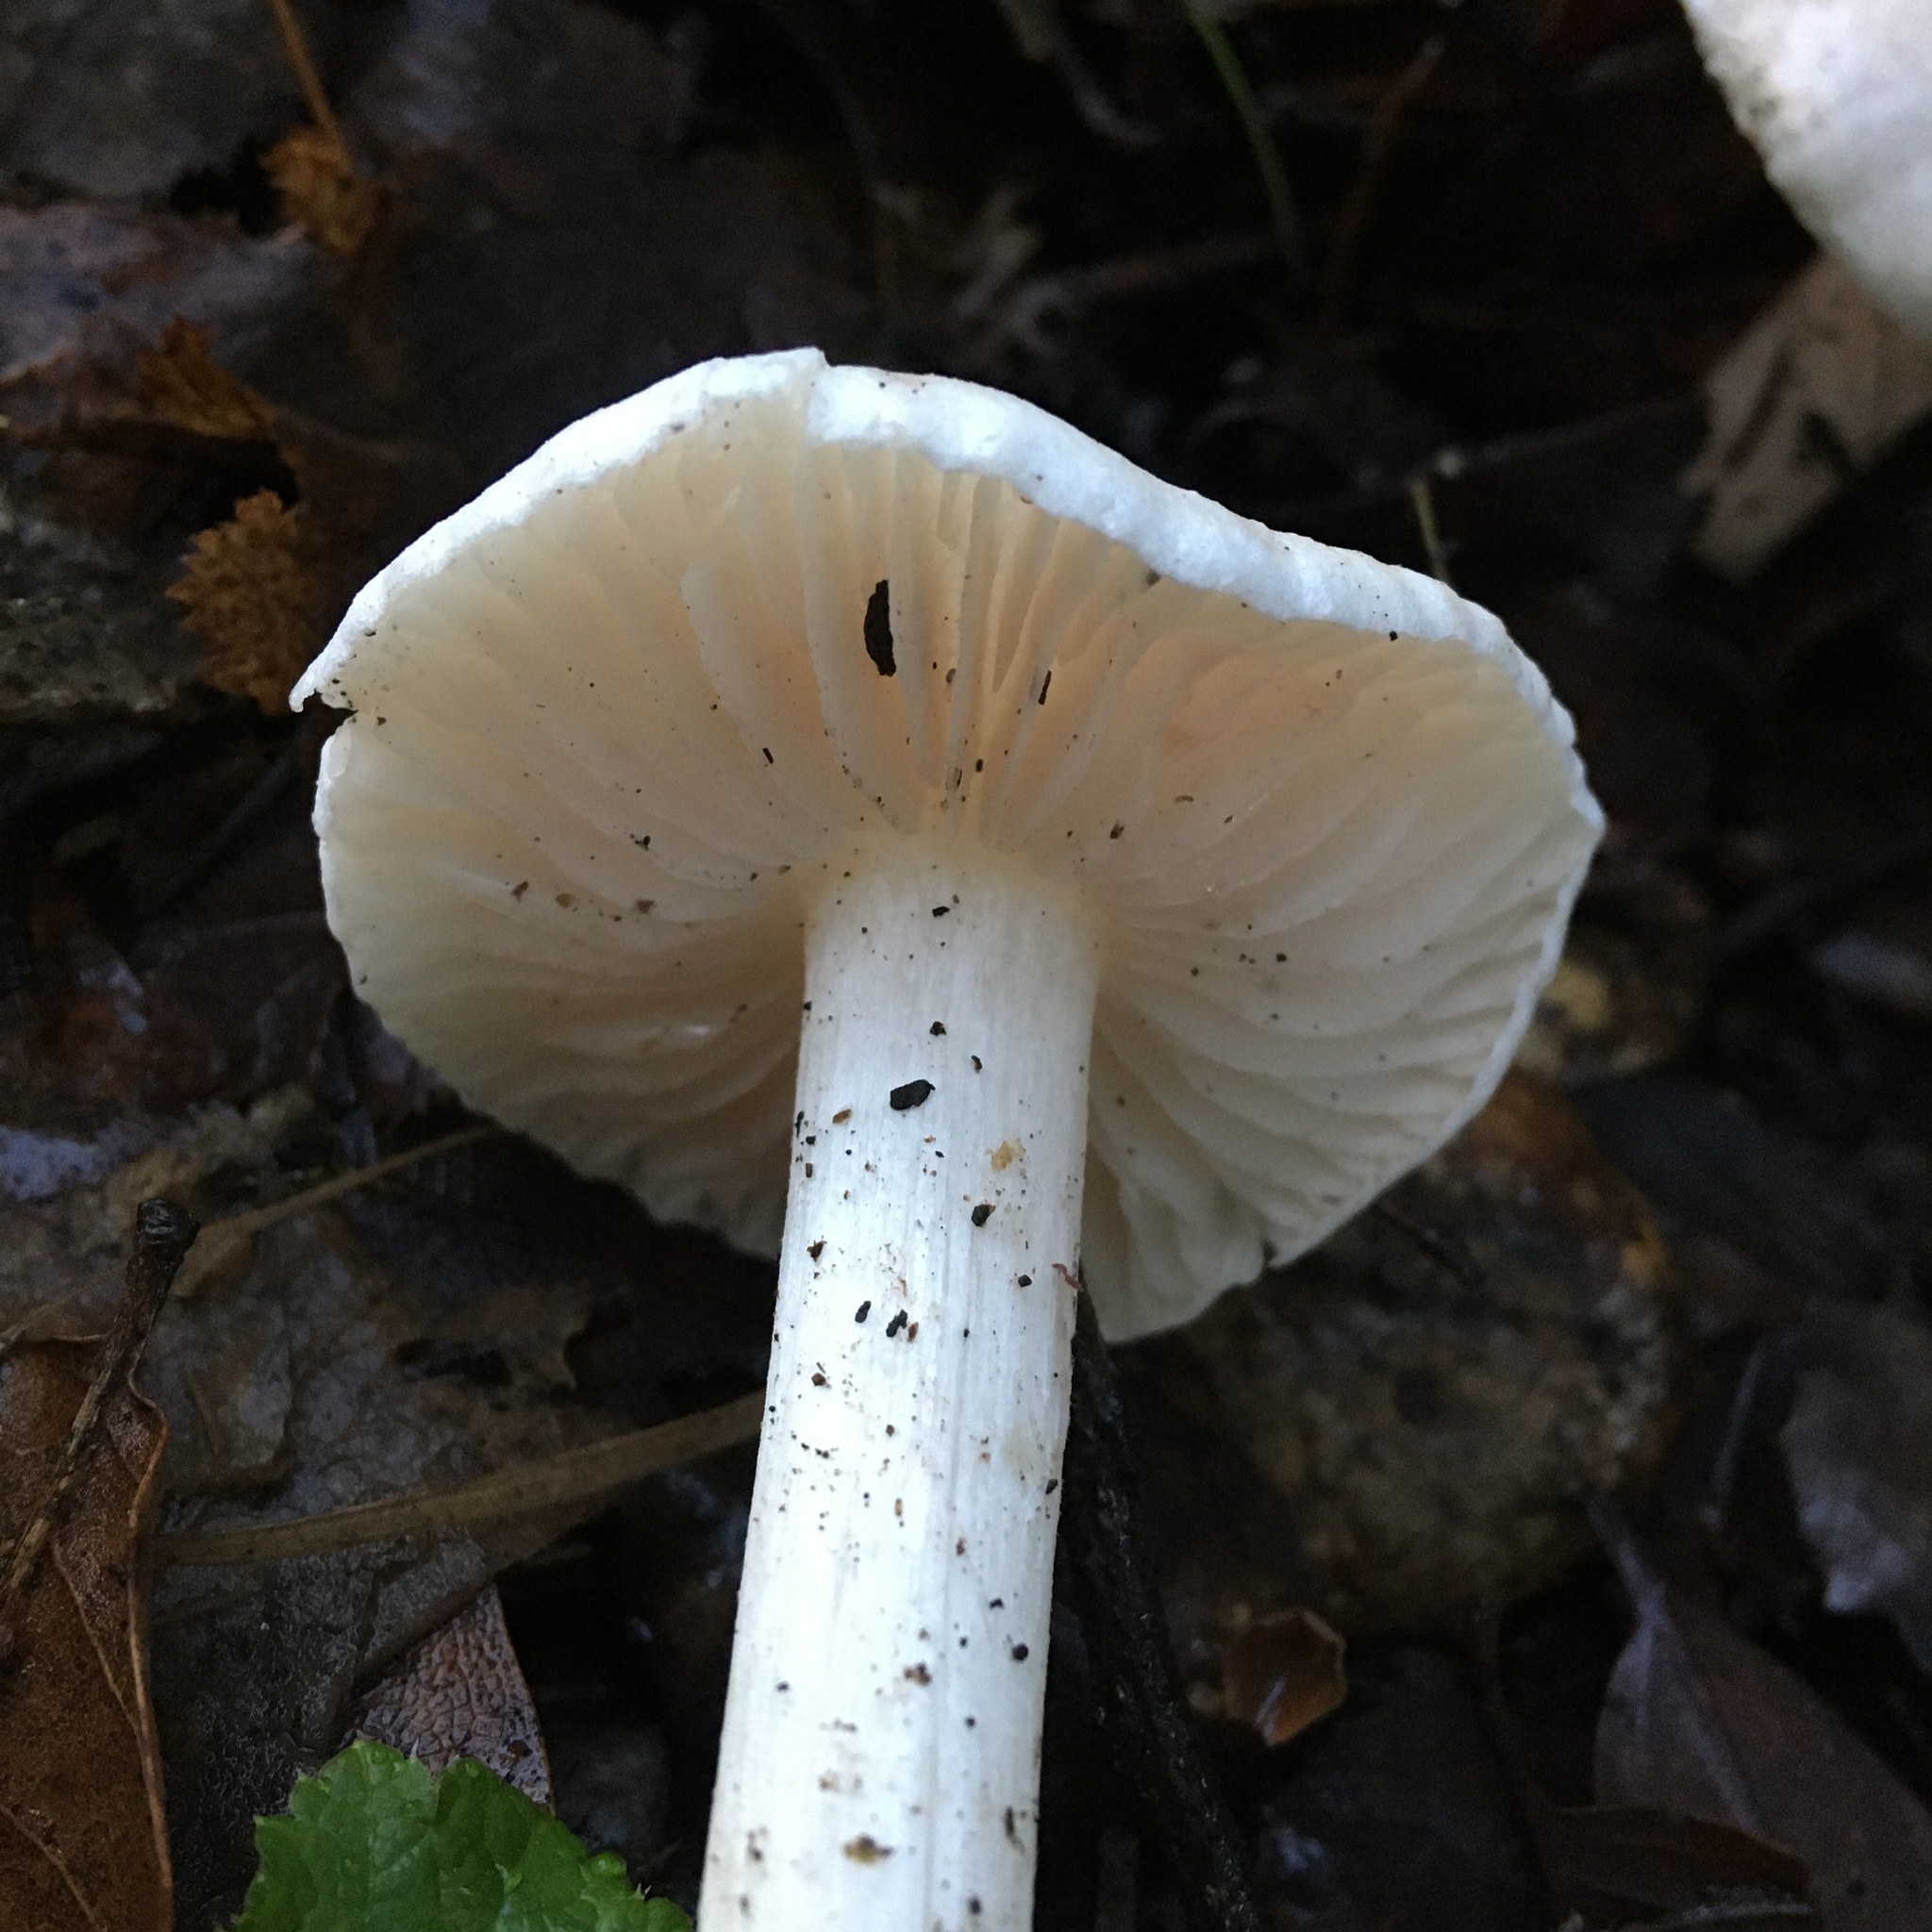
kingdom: Fungi
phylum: Basidiomycota
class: Agaricomycetes
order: Agaricales
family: Hygrophoraceae
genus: Hygrophorus
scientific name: Hygrophorus eburneus
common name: Ivory wax-cap
